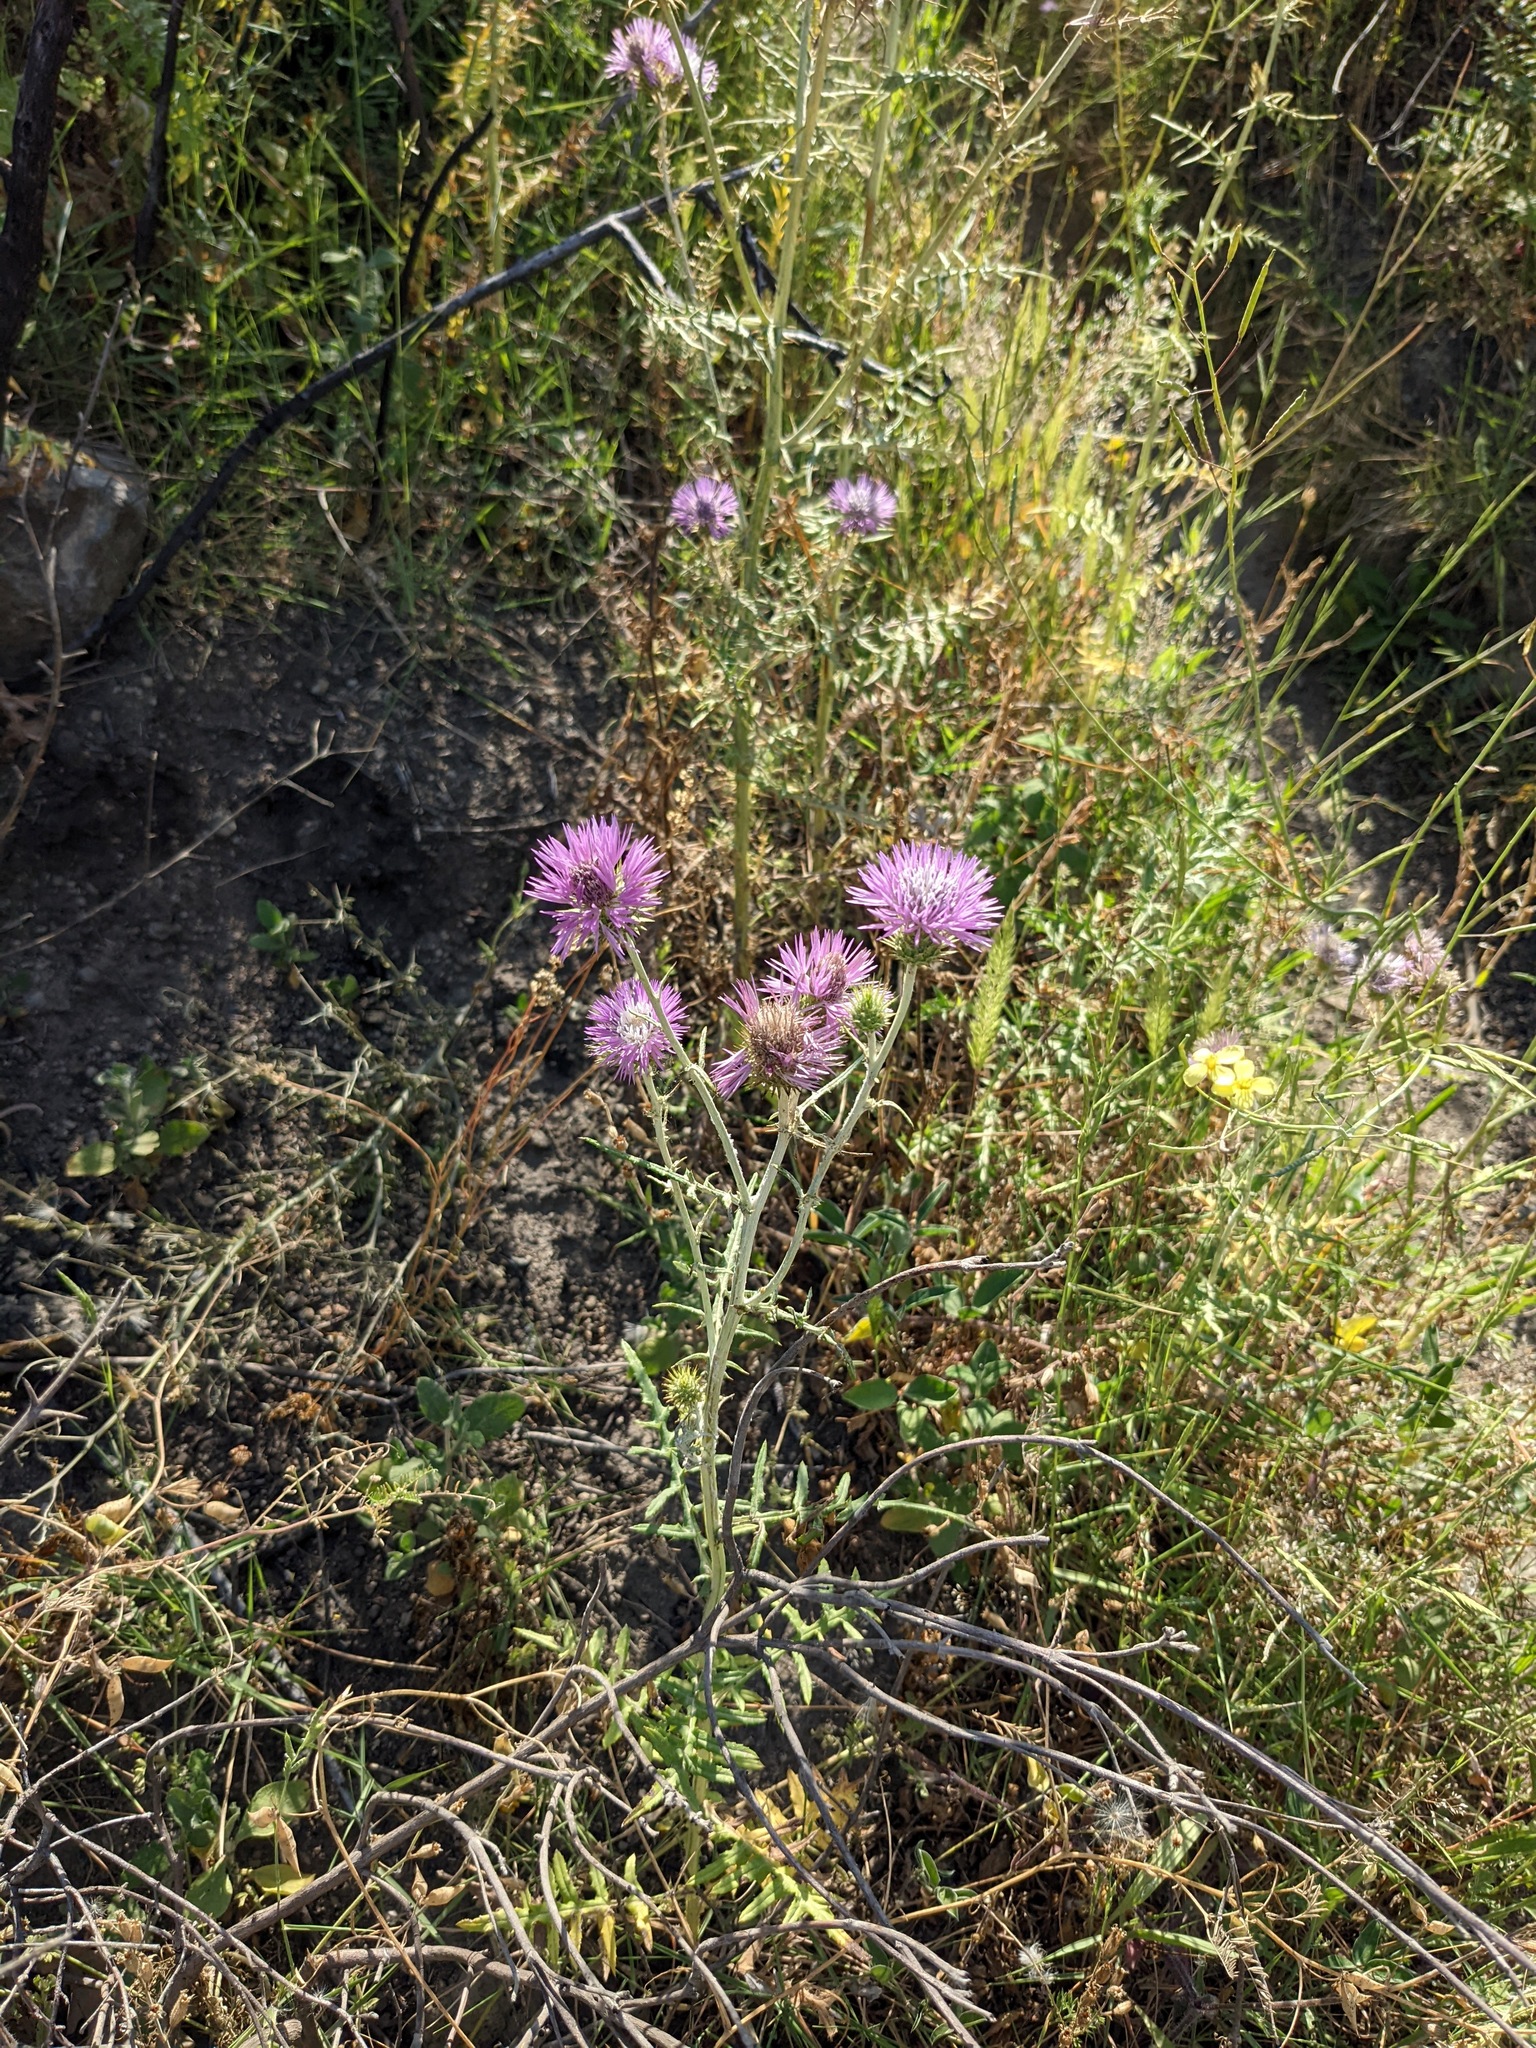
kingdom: Plantae
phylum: Tracheophyta
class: Magnoliopsida
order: Asterales
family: Asteraceae
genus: Galactites
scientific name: Galactites tomentosa
